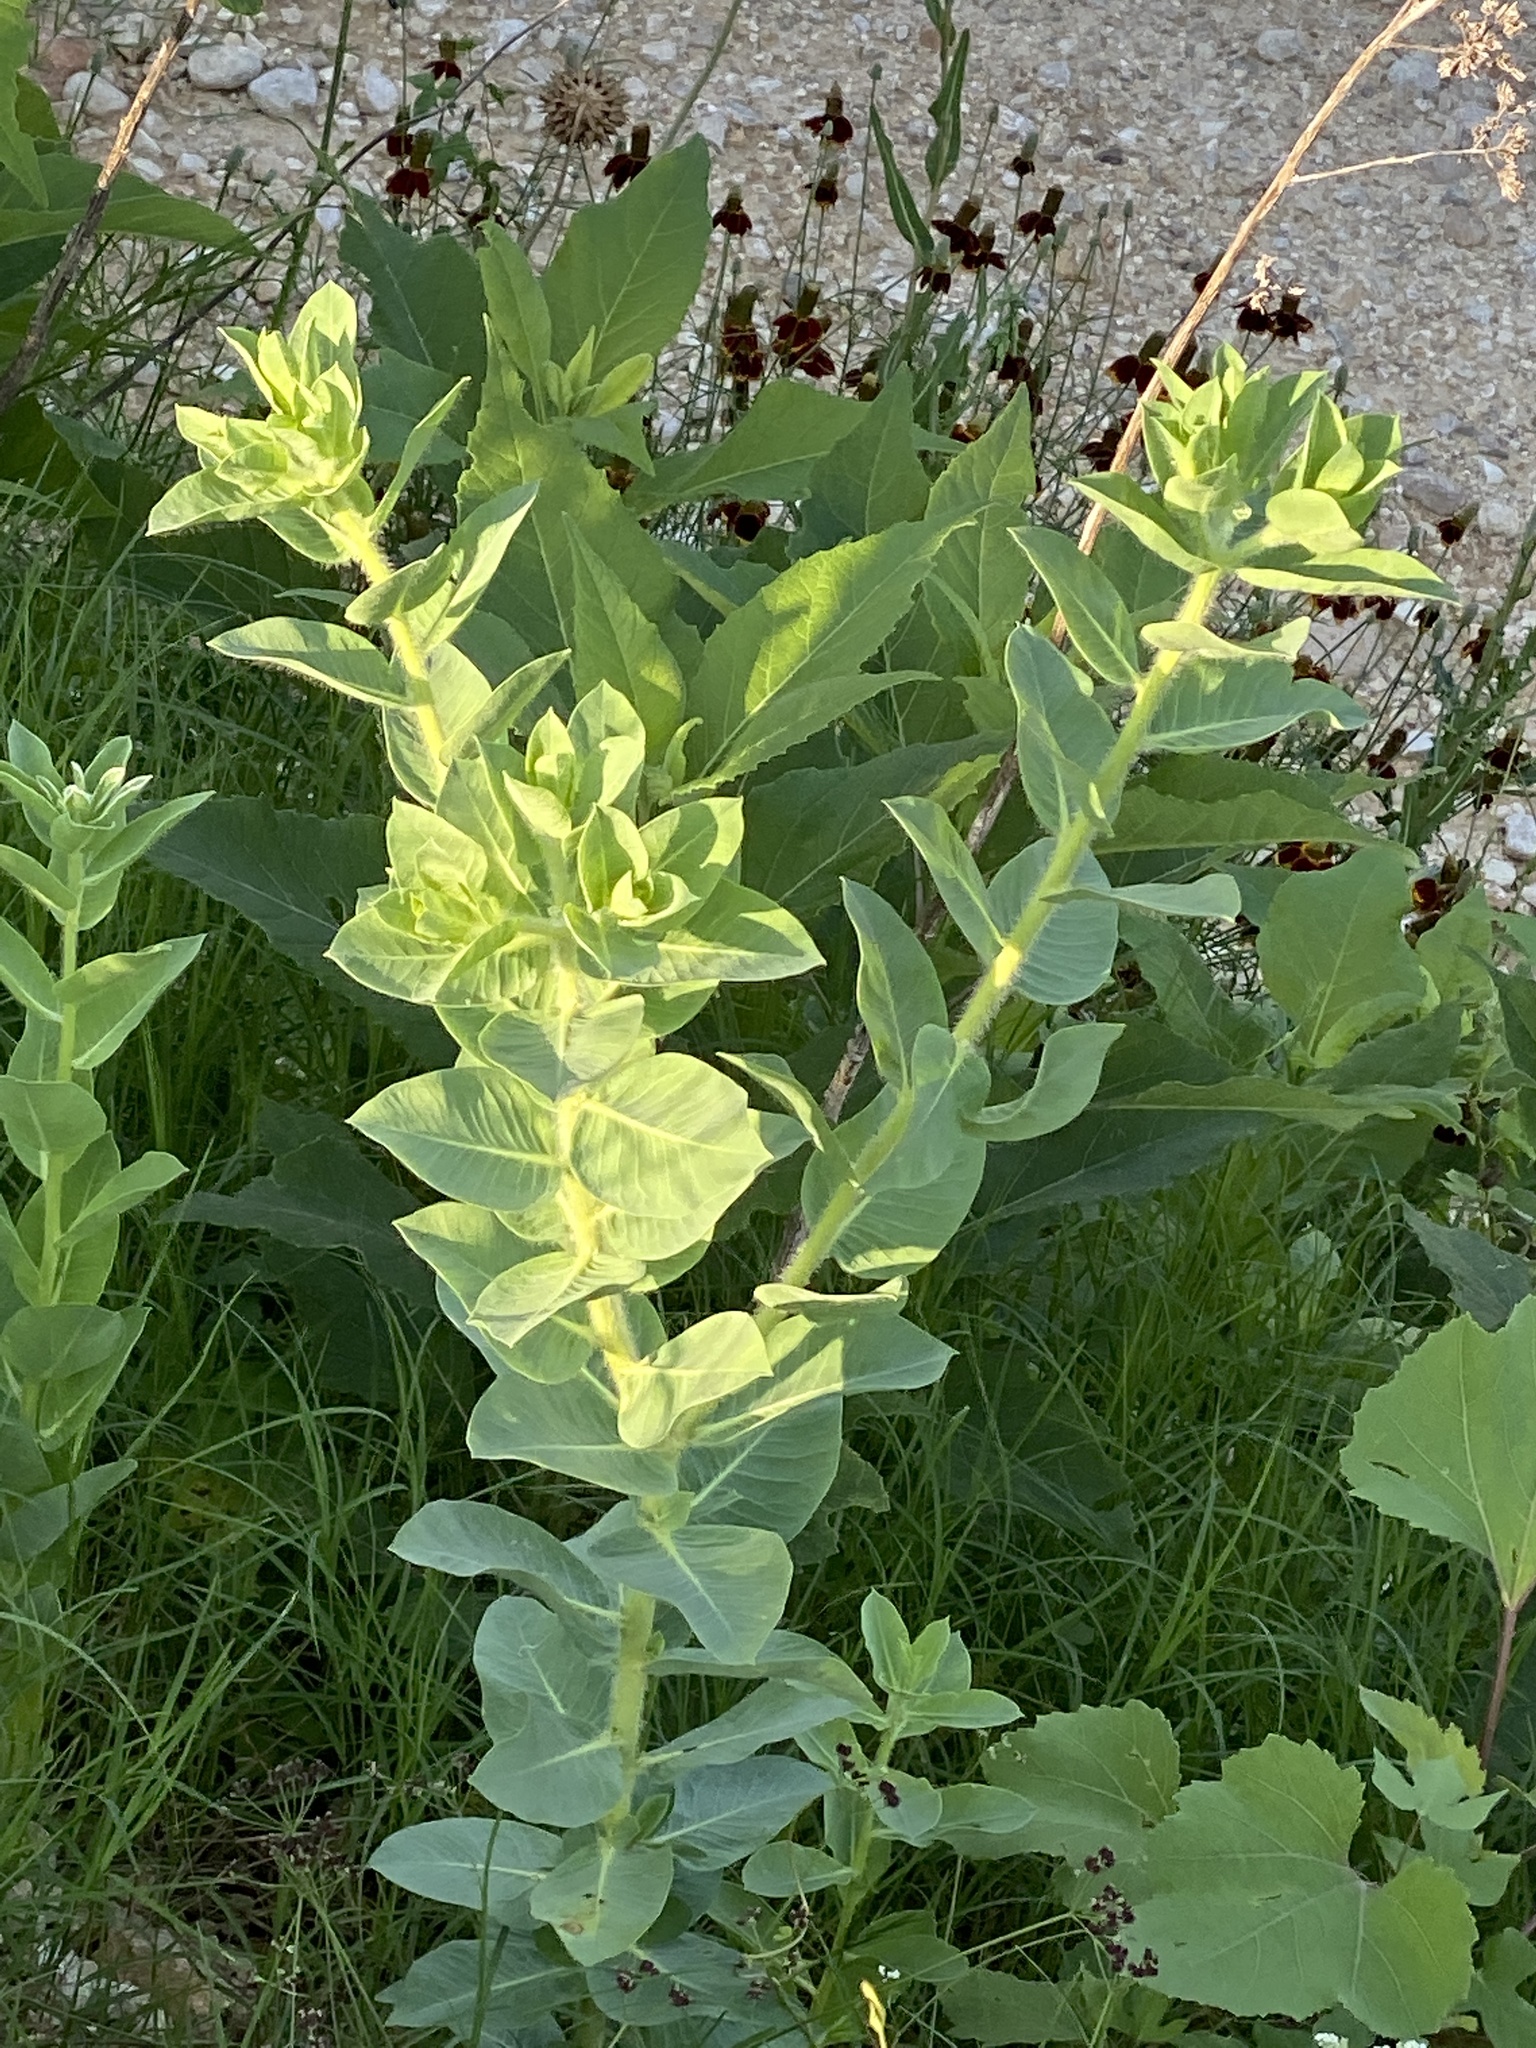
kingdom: Plantae
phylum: Tracheophyta
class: Magnoliopsida
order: Malpighiales
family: Euphorbiaceae
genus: Euphorbia
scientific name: Euphorbia marginata
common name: Ghostweed
